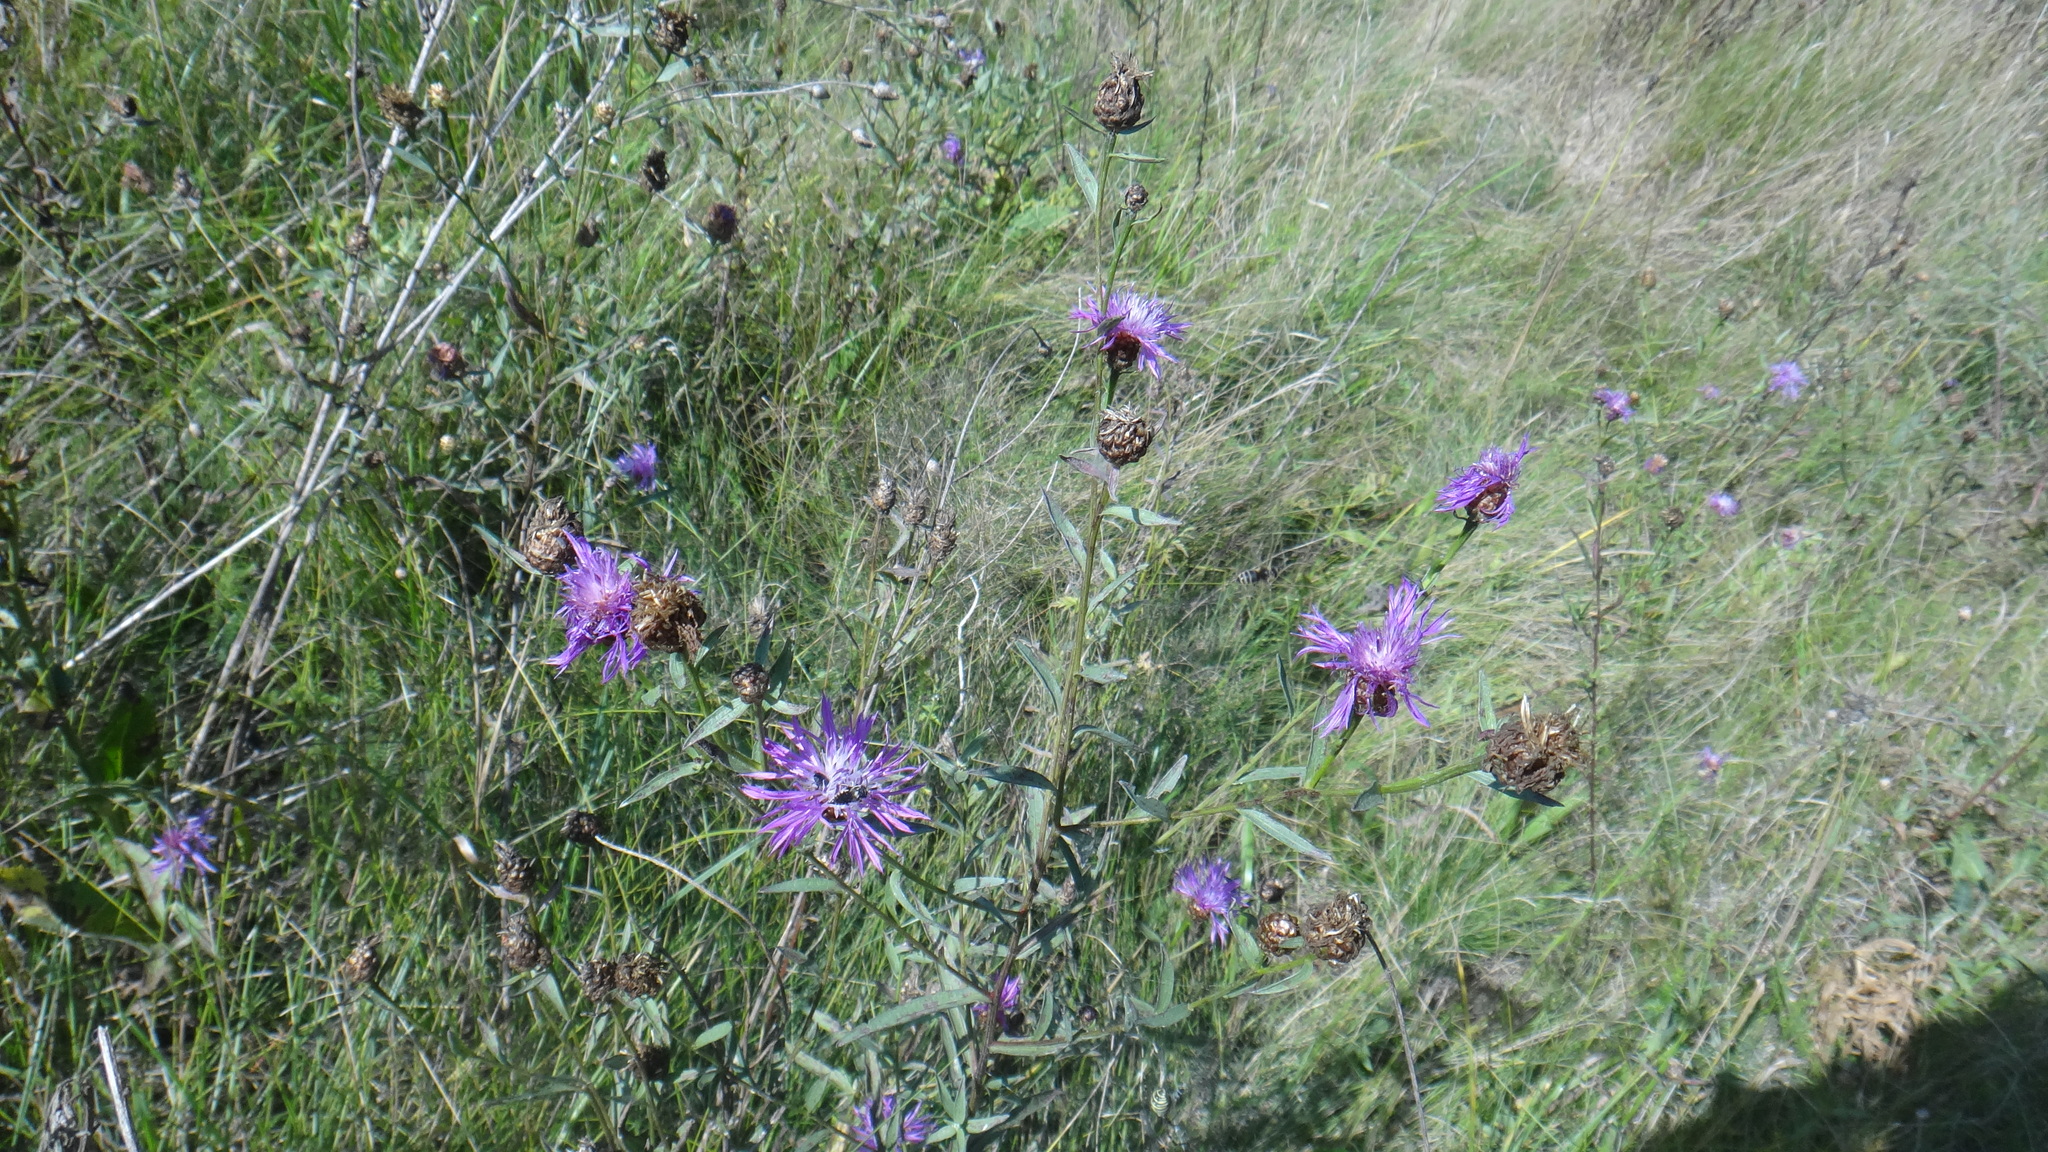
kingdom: Plantae
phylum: Tracheophyta
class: Magnoliopsida
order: Asterales
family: Asteraceae
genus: Centaurea
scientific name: Centaurea jacea
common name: Brown knapweed
